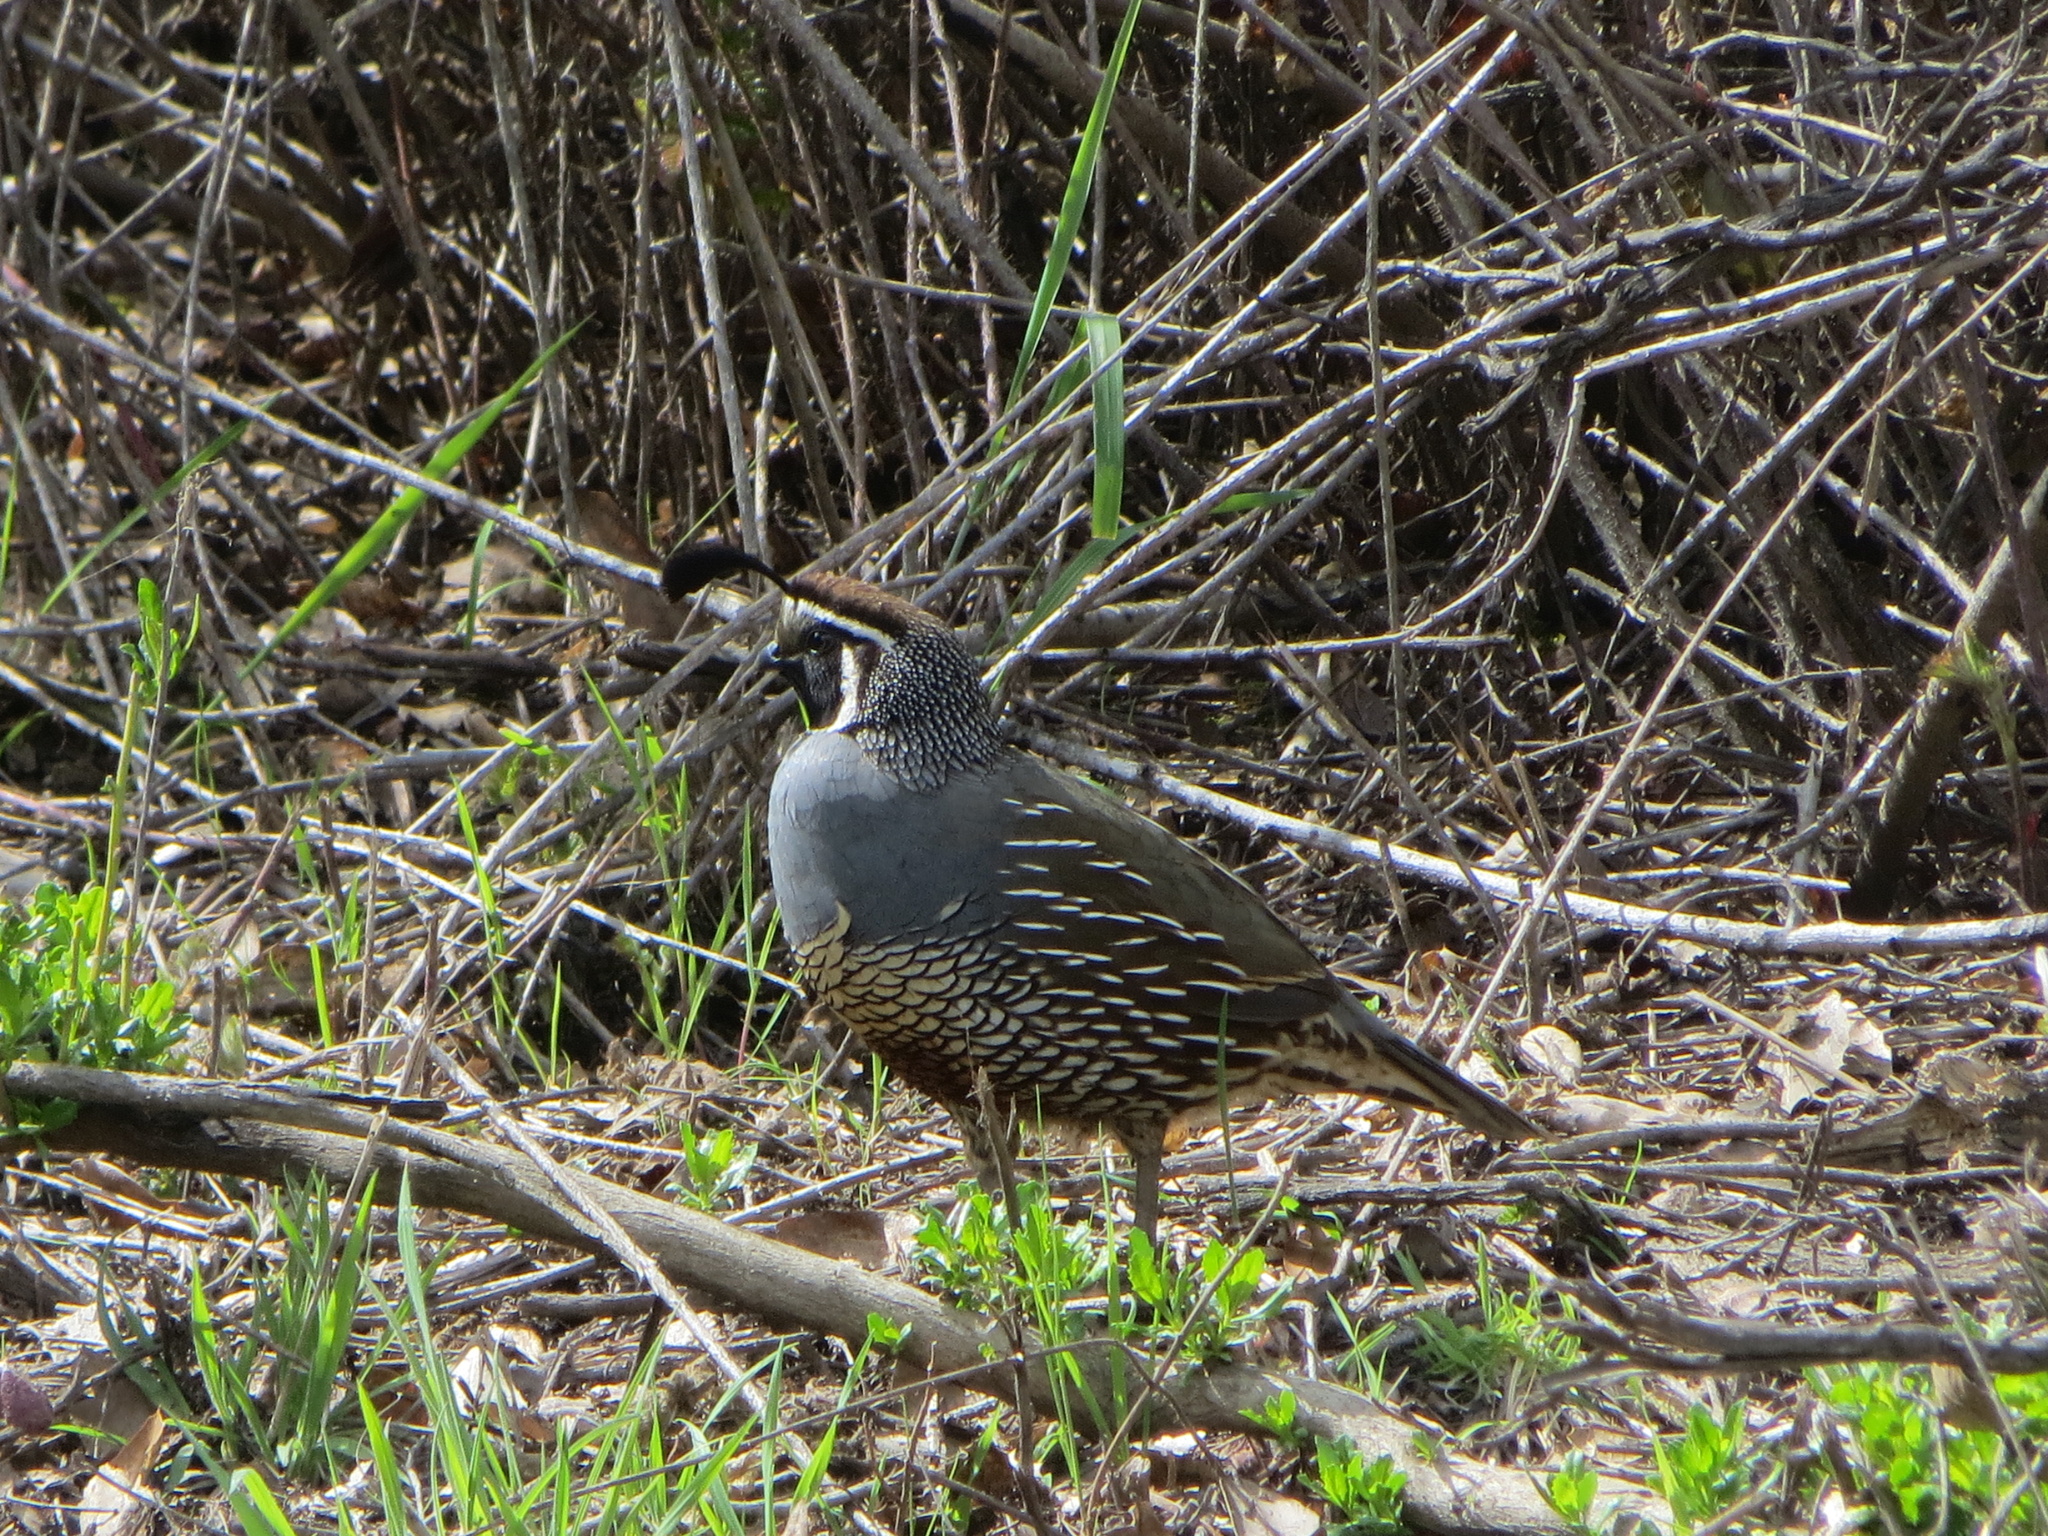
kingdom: Animalia
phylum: Chordata
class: Aves
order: Galliformes
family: Odontophoridae
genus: Callipepla
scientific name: Callipepla californica
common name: California quail
